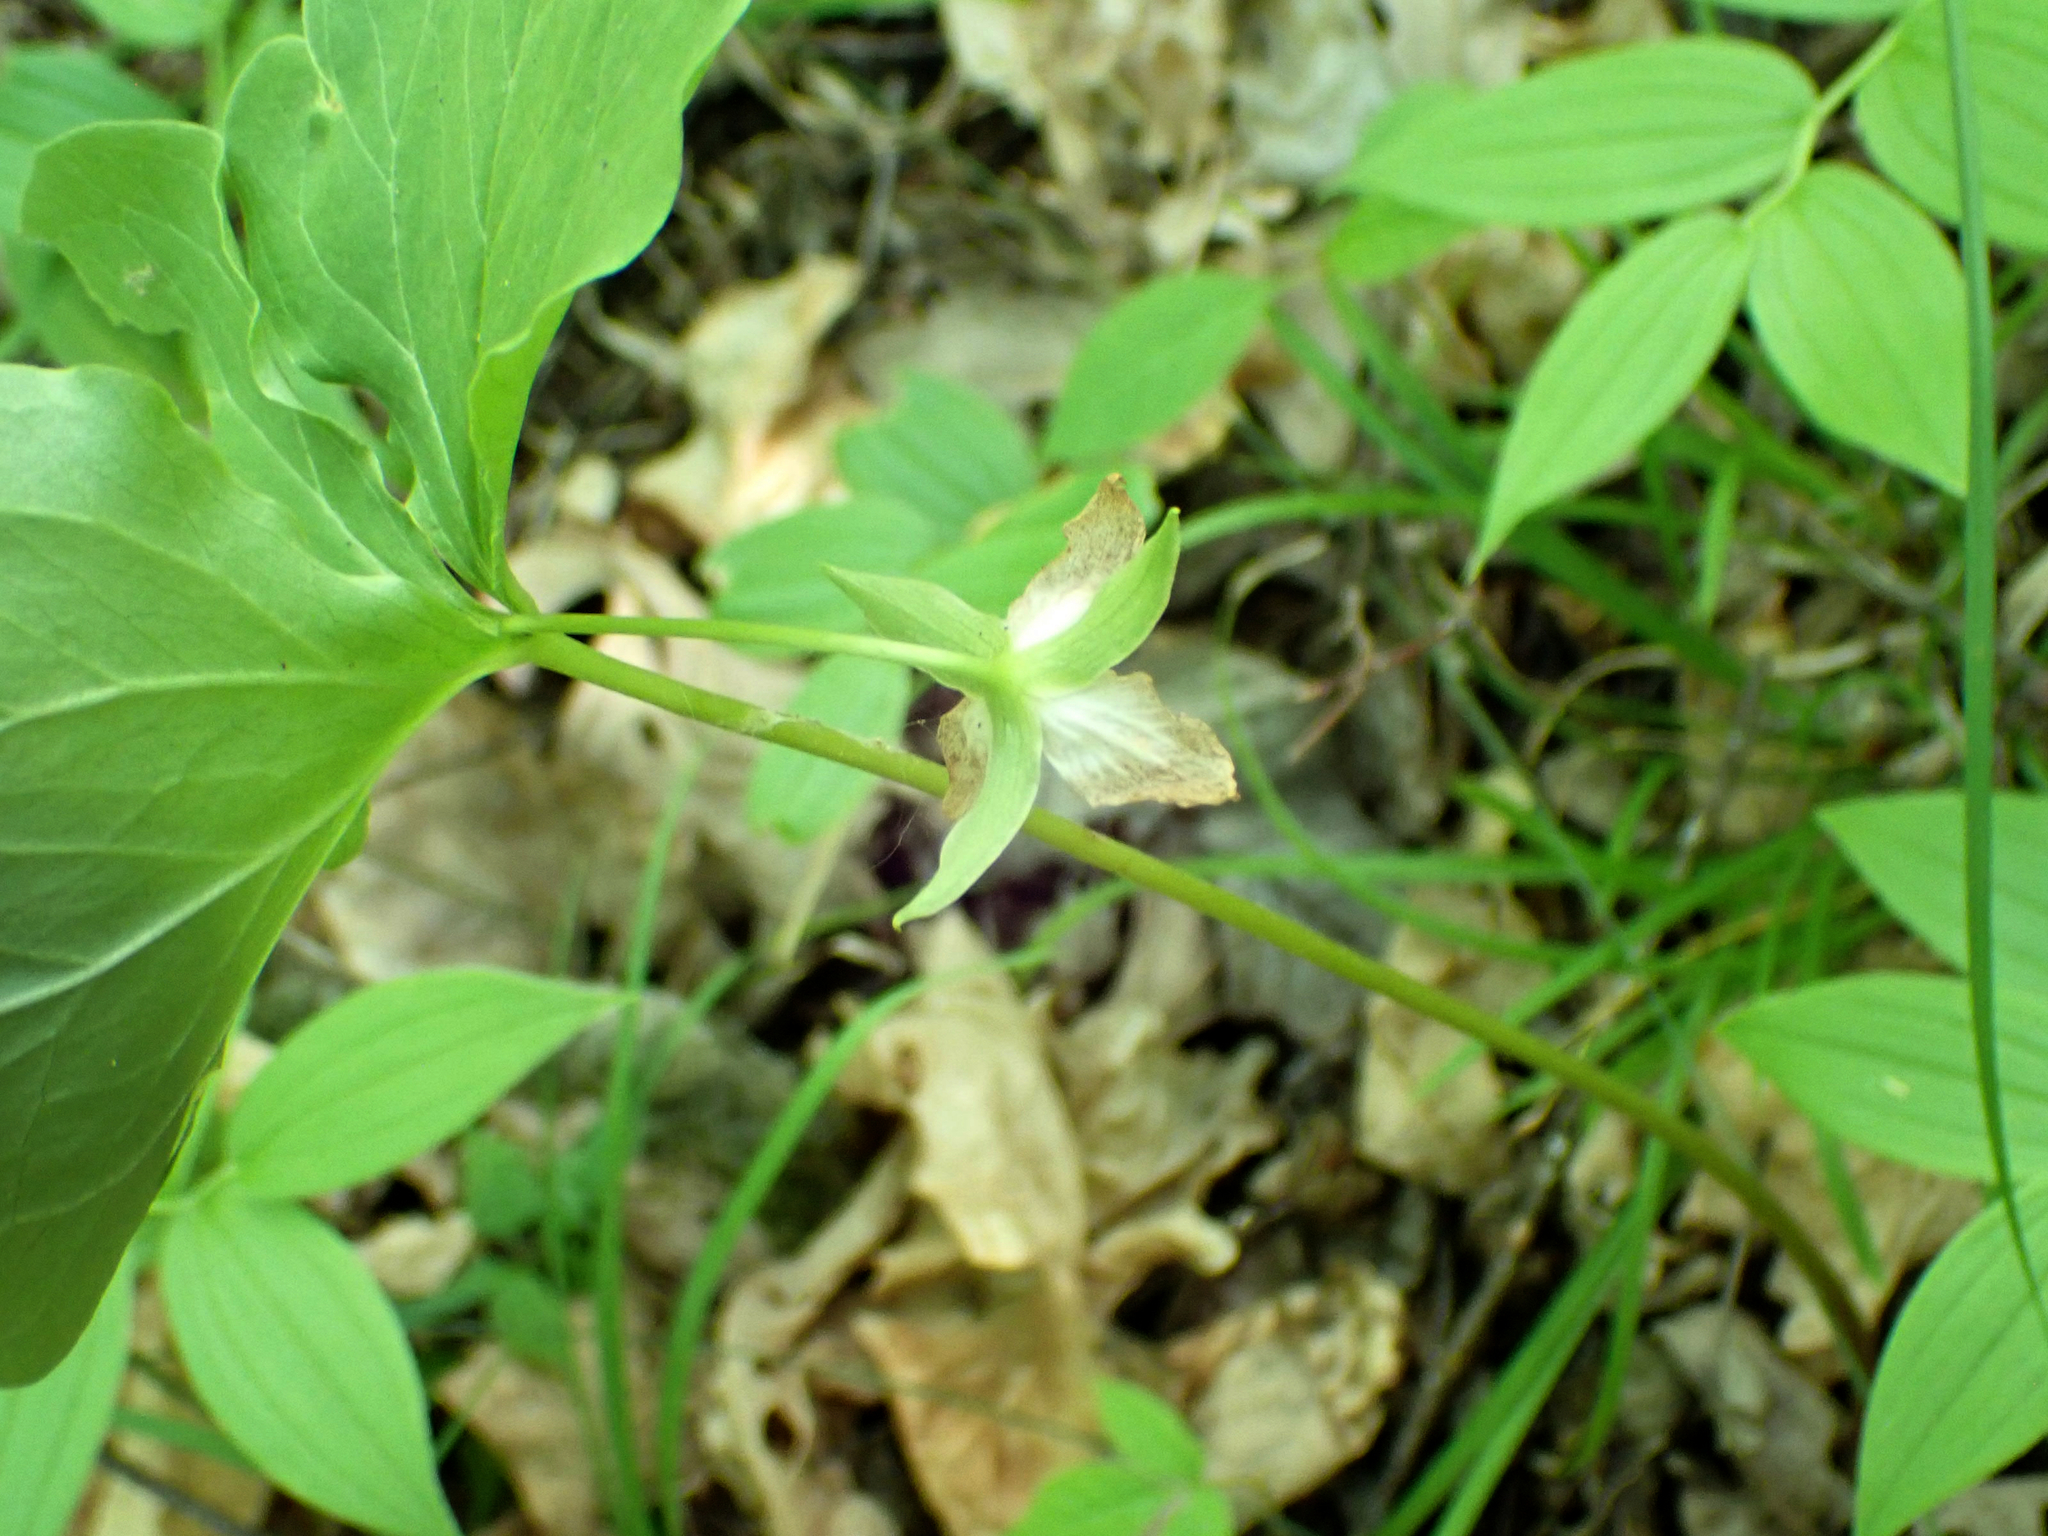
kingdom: Plantae
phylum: Tracheophyta
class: Liliopsida
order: Liliales
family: Melanthiaceae
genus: Trillium
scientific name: Trillium cernuum
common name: Nodding trillium
